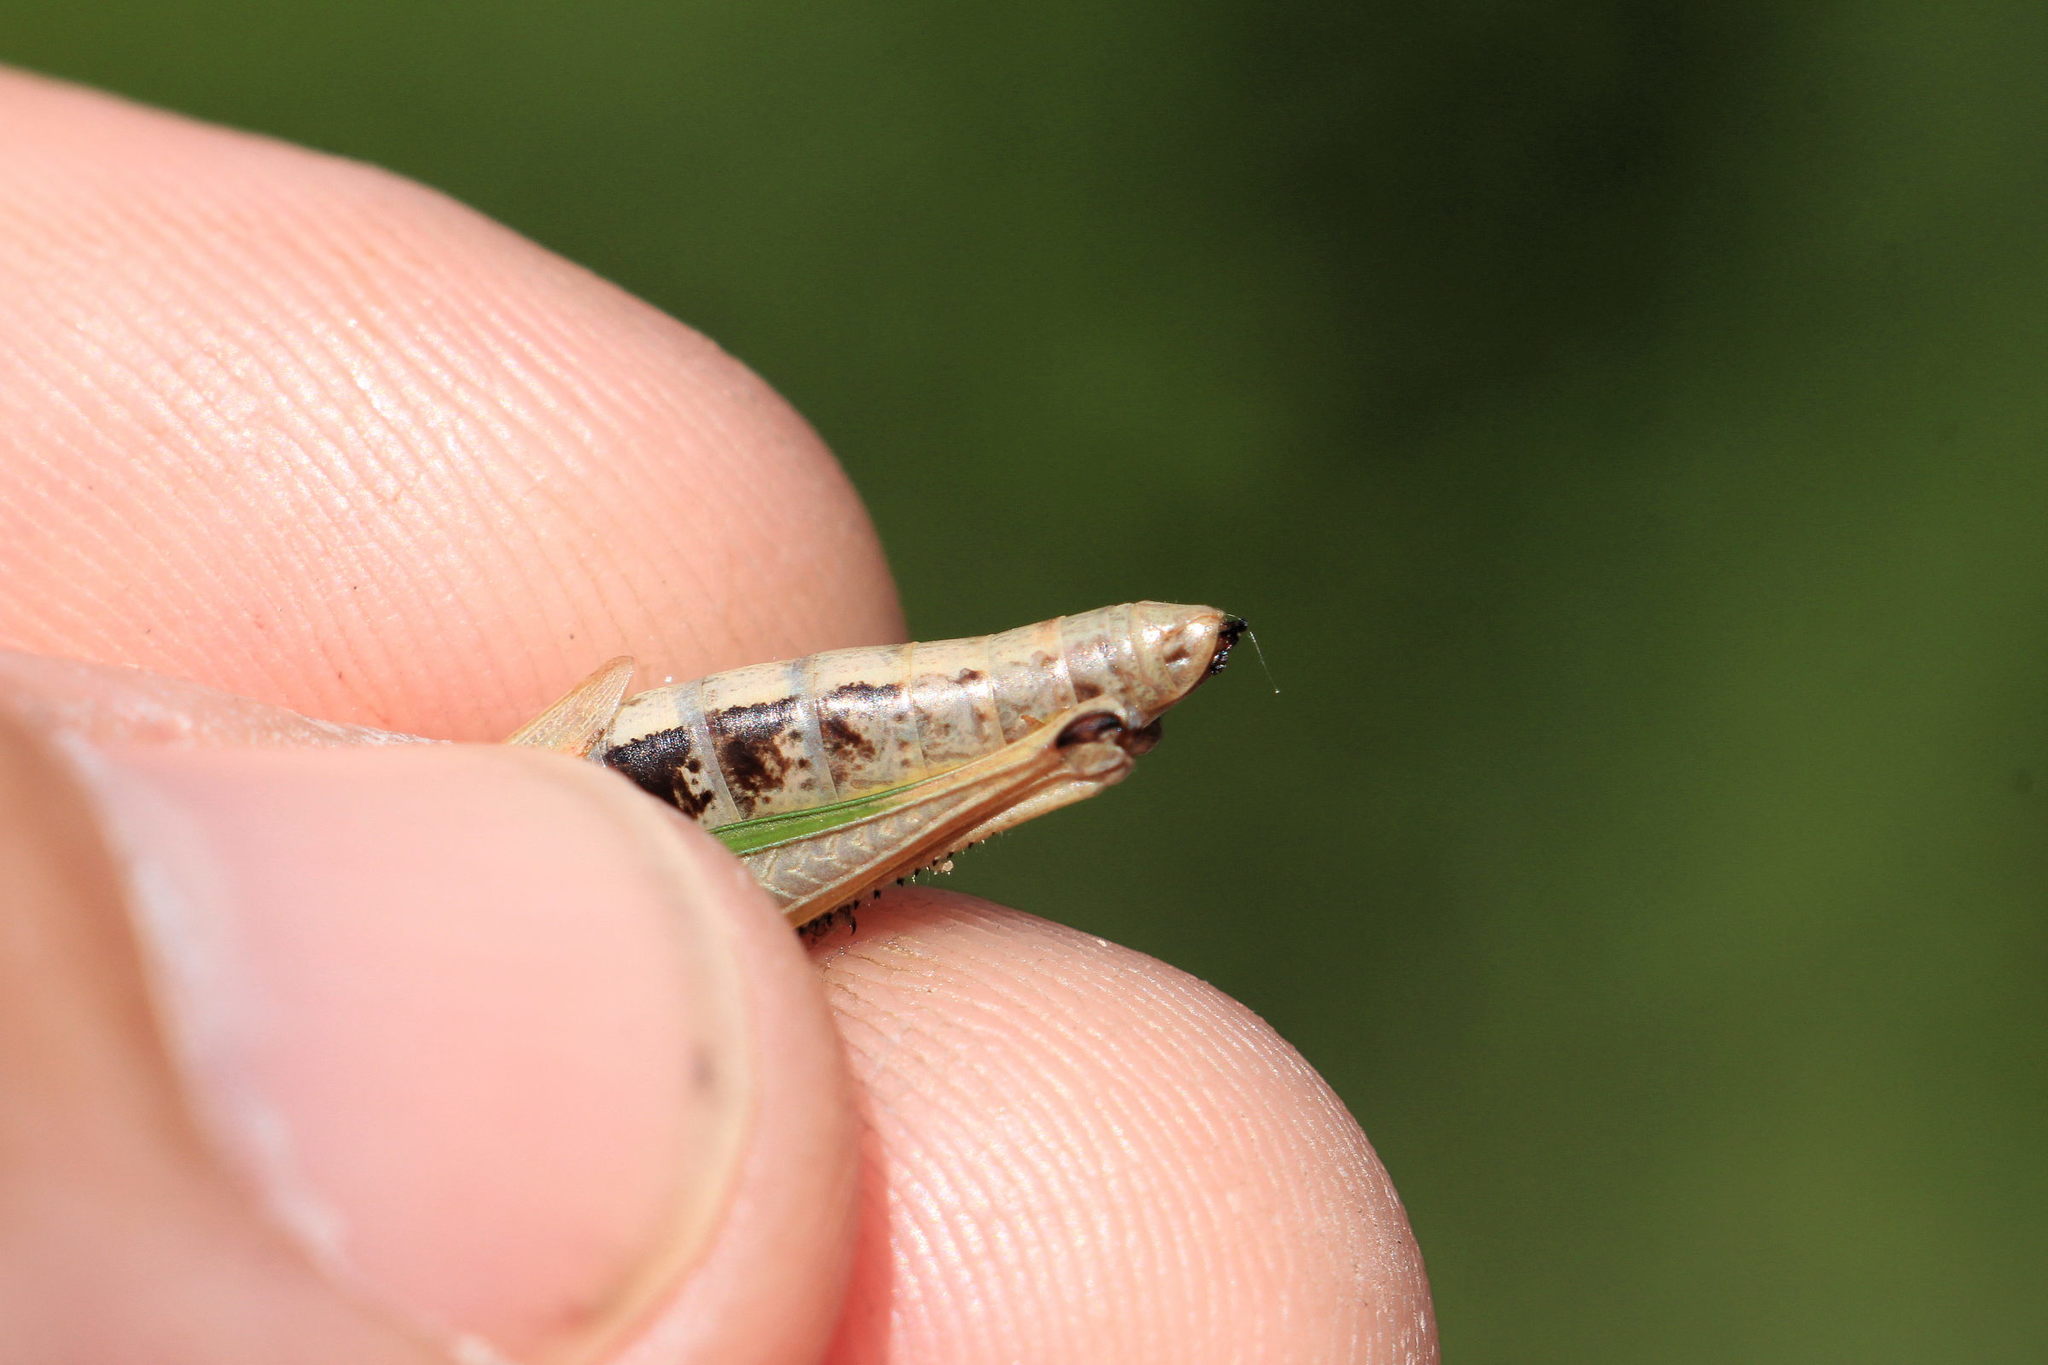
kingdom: Animalia
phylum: Arthropoda
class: Insecta
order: Orthoptera
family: Acrididae
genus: Pseudochorthippus
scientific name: Pseudochorthippus parallelus
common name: Meadow grasshopper
